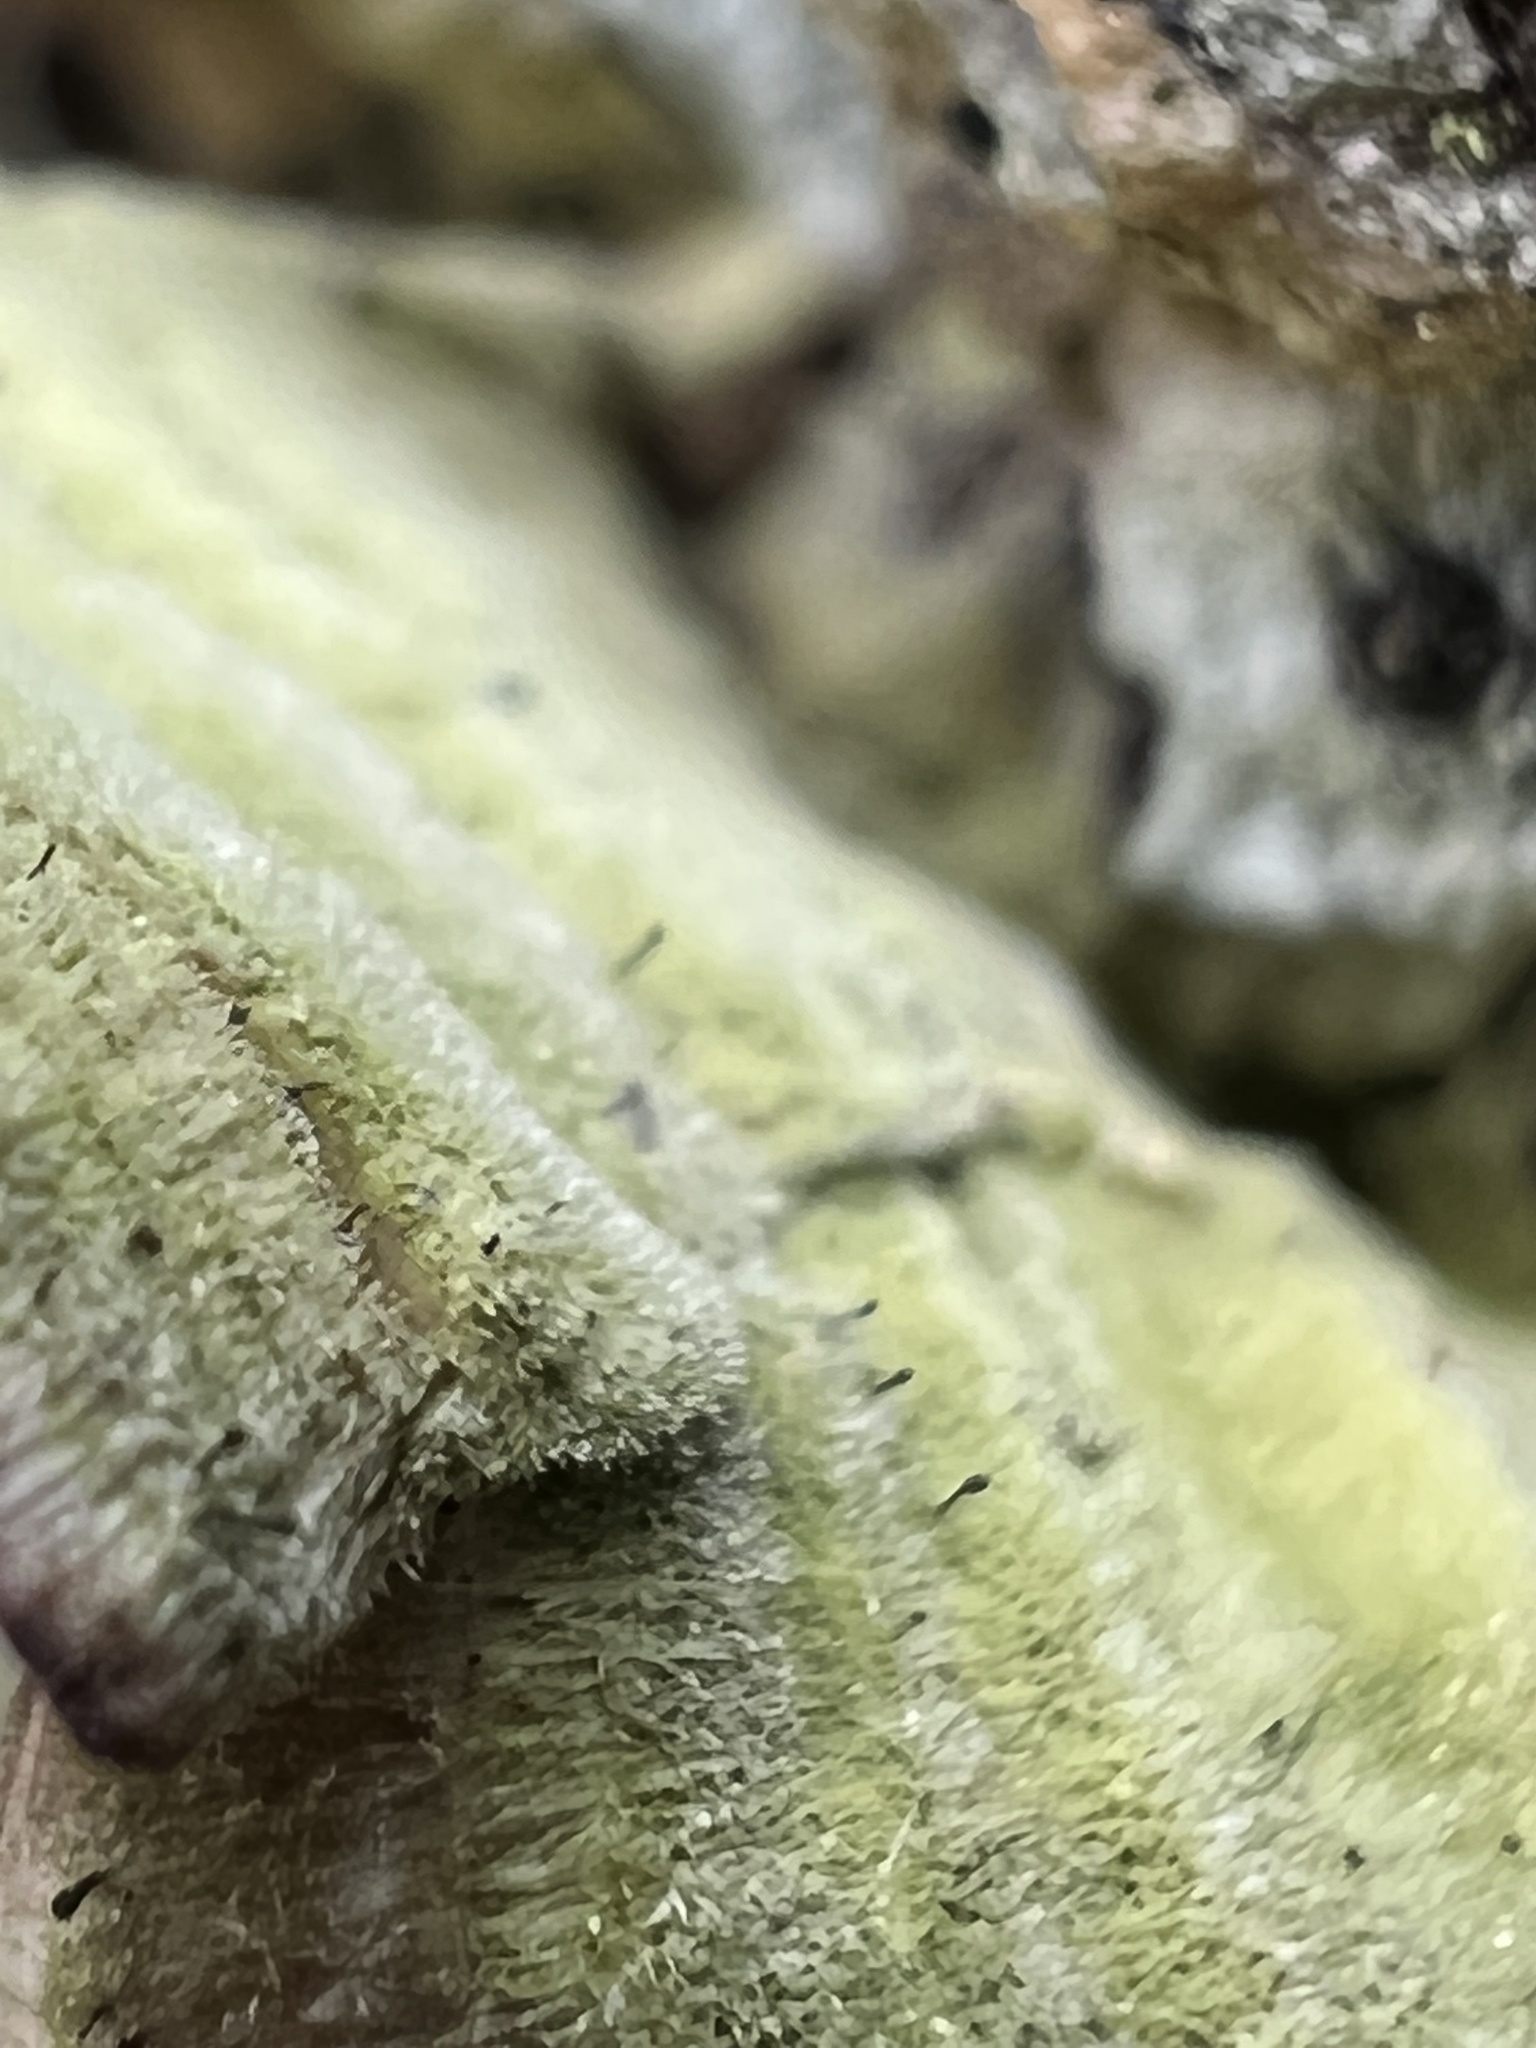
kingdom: Fungi
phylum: Ascomycota
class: Eurotiomycetes
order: Mycocaliciales
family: Mycocaliciaceae
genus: Phaeocalicium
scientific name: Phaeocalicium polyporaeum
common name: Fairy pins
